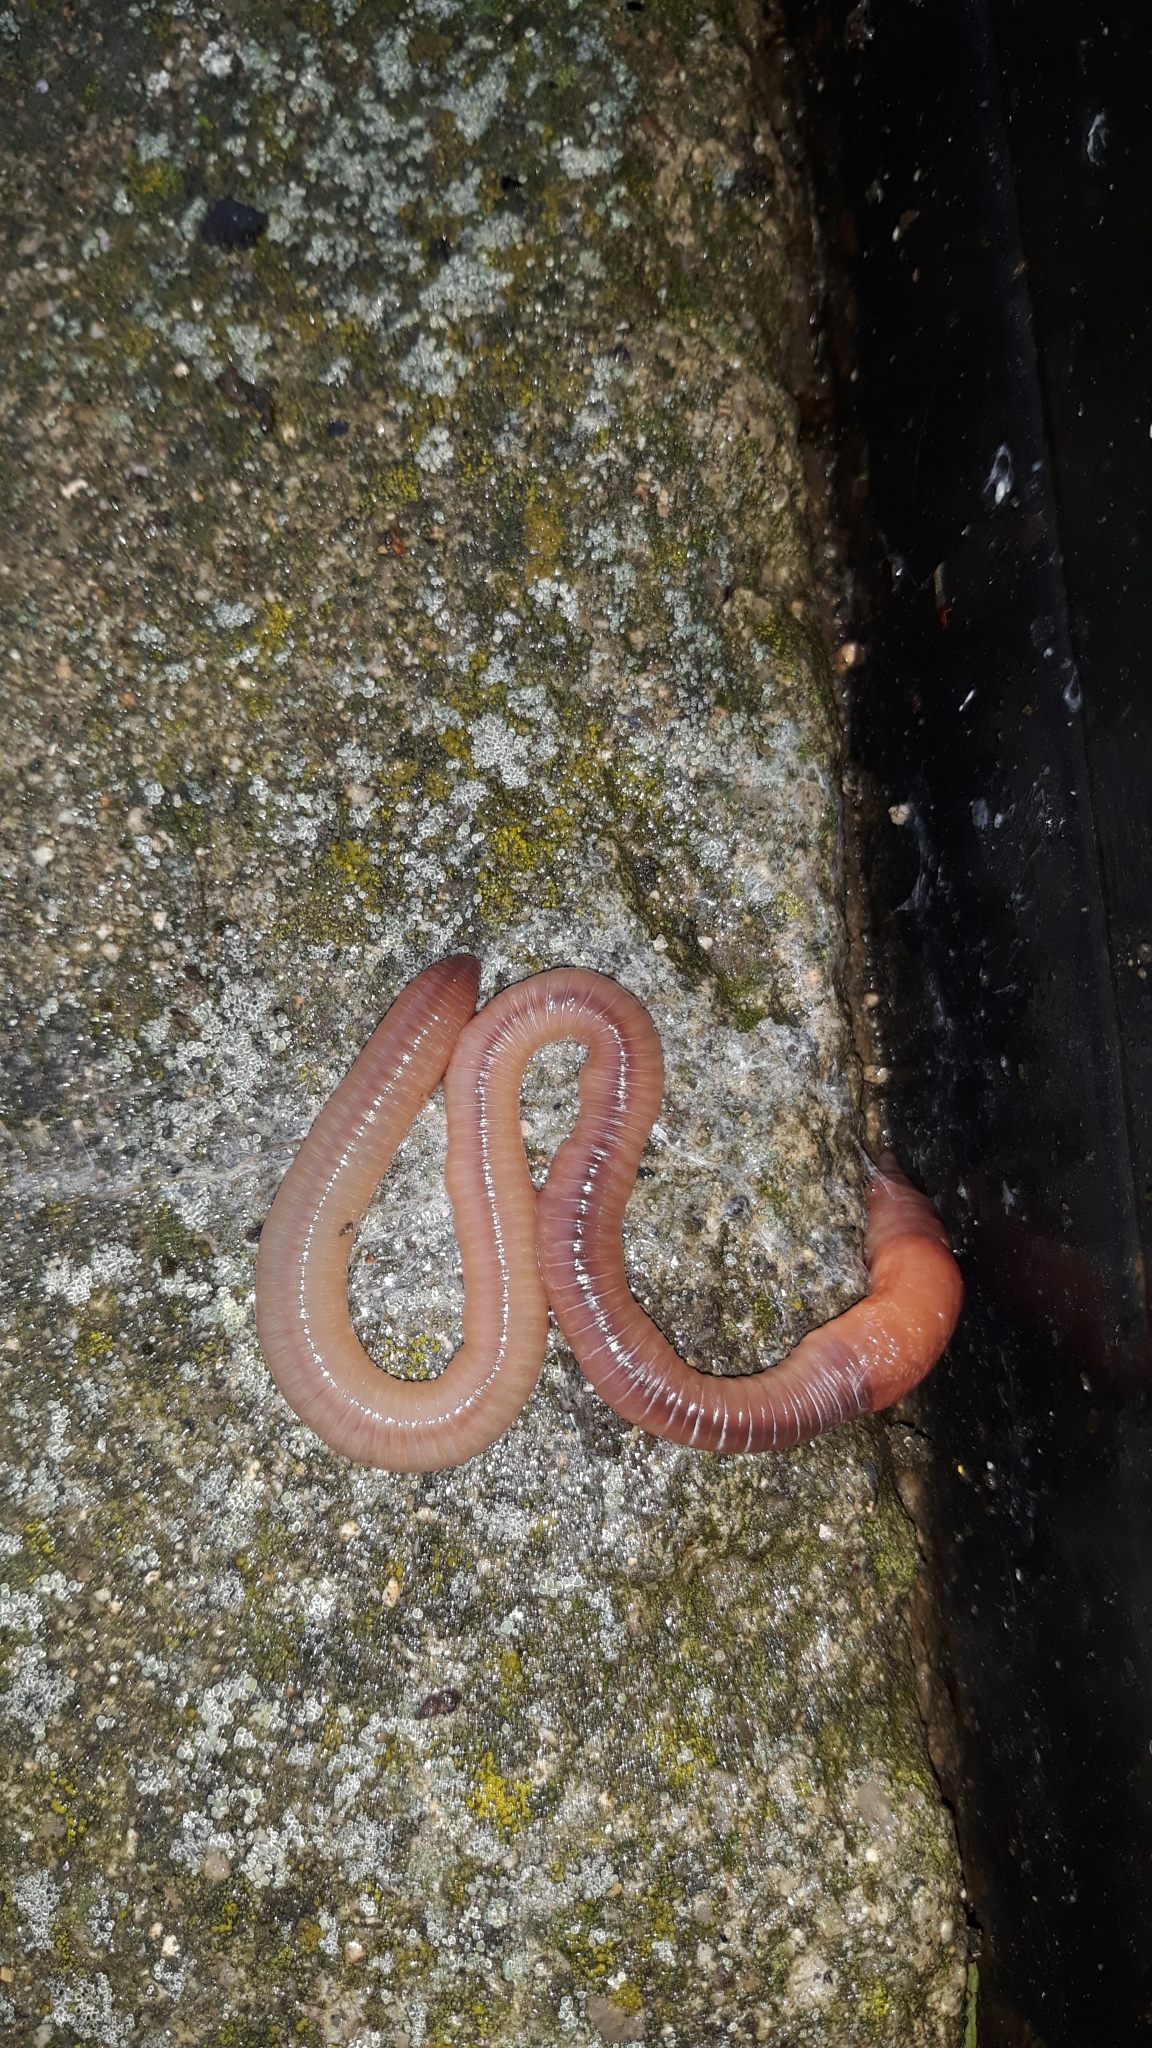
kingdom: Animalia
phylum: Annelida
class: Clitellata
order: Crassiclitellata
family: Lumbricidae
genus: Lumbricus
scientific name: Lumbricus terrestris
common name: Common earthworm
